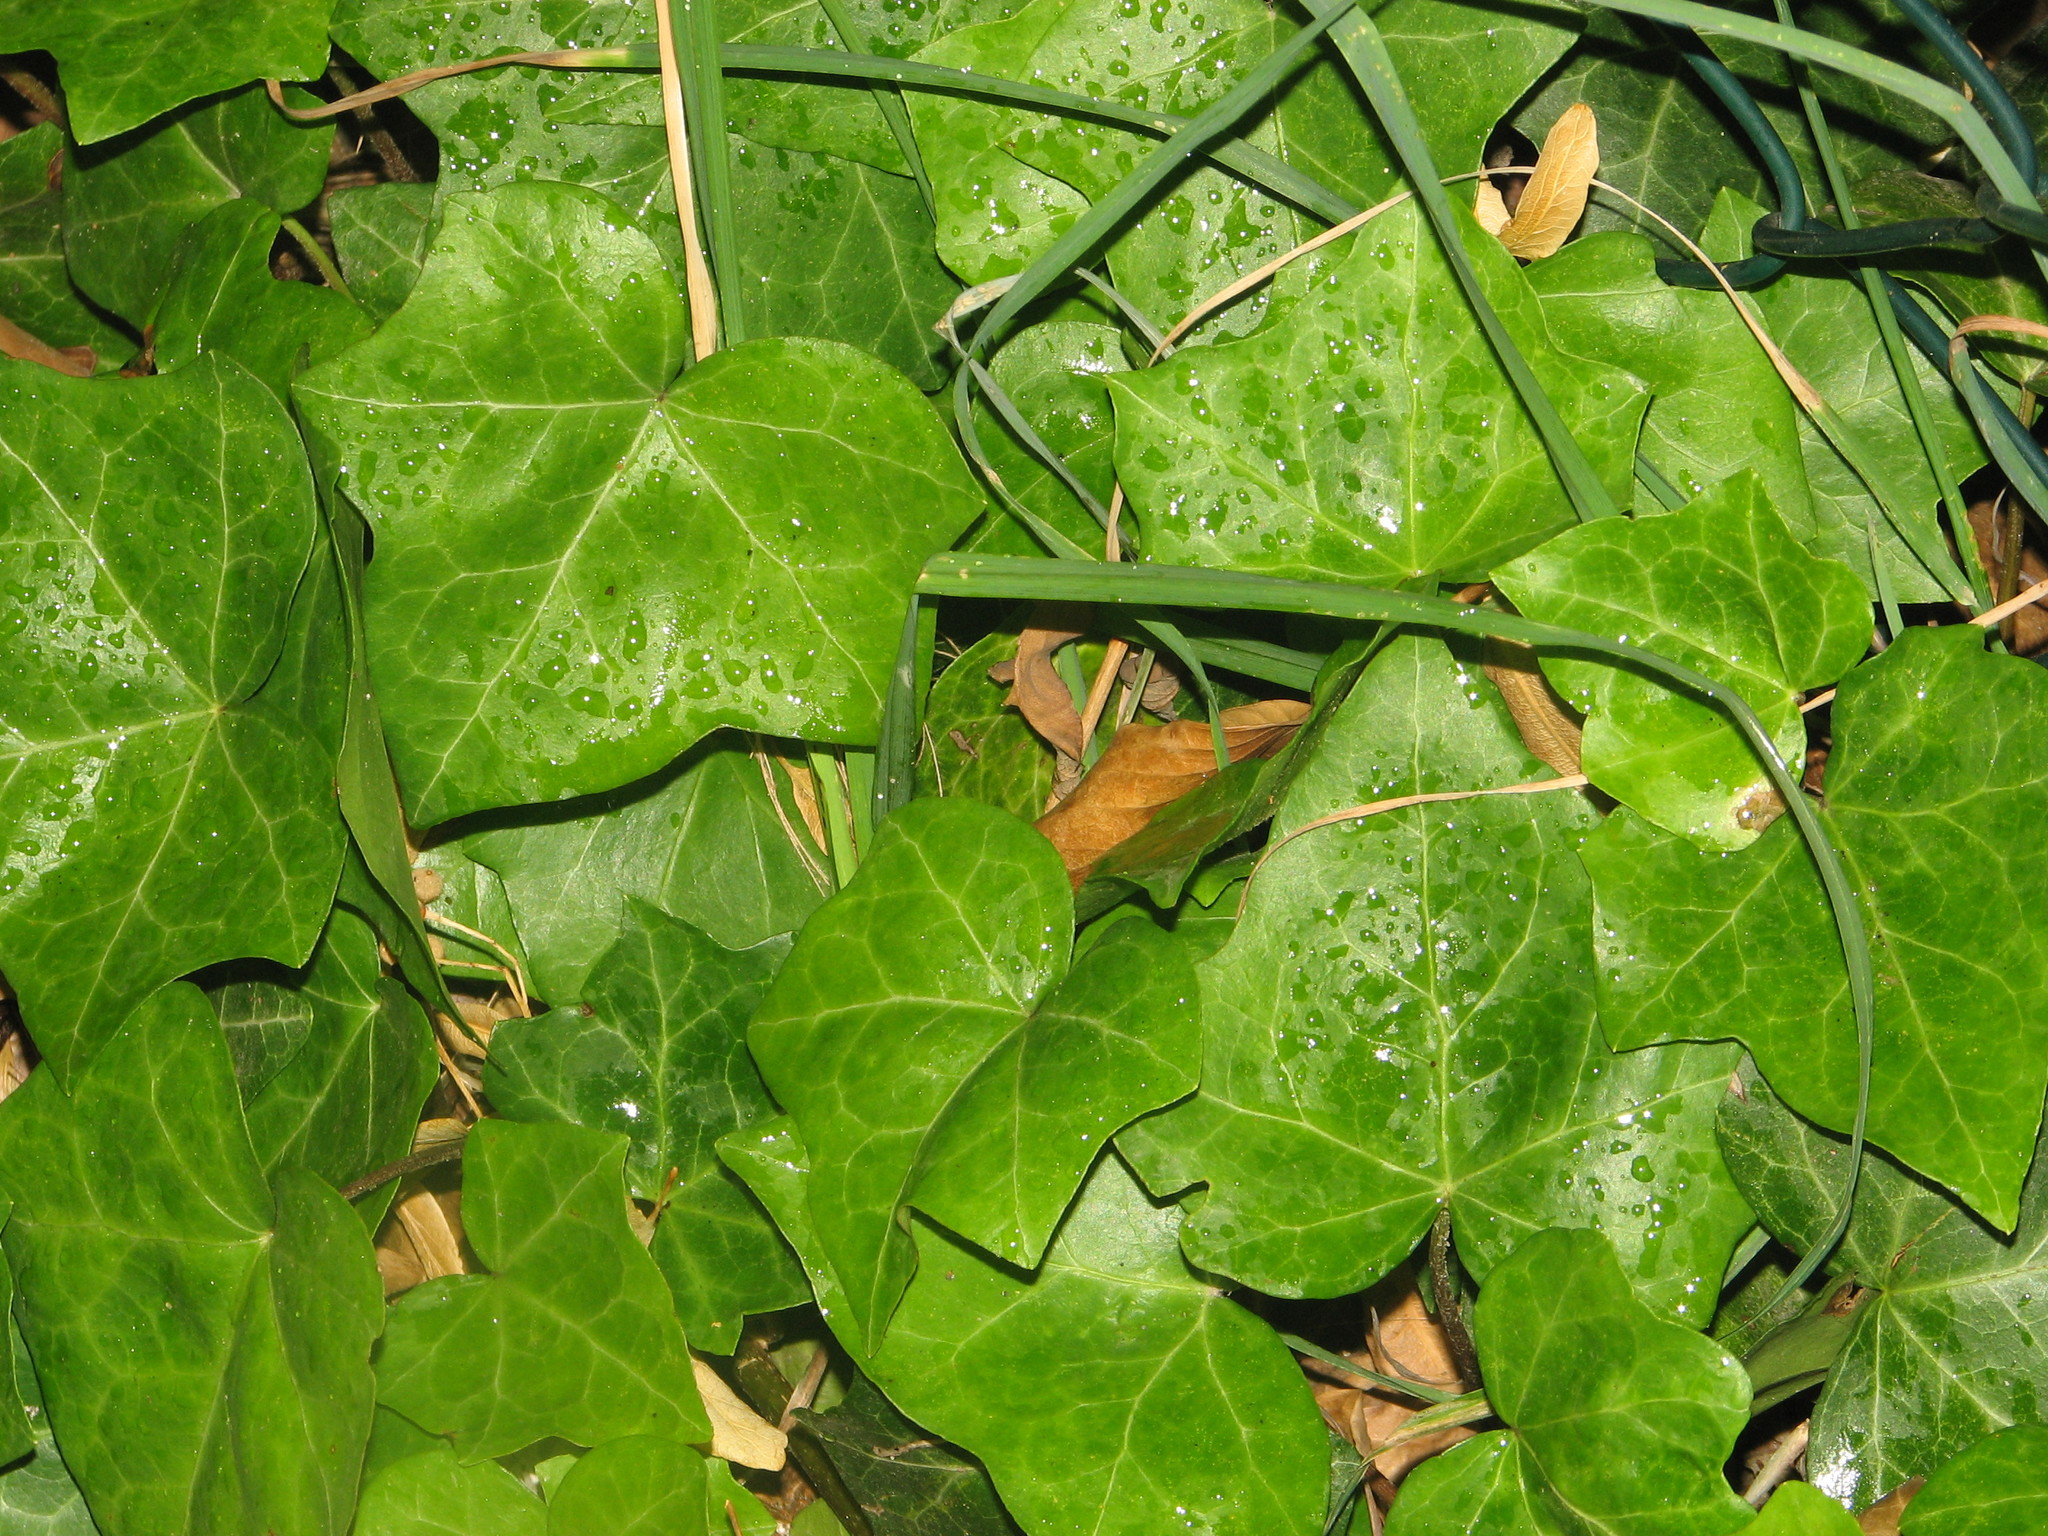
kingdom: Plantae
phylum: Tracheophyta
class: Magnoliopsida
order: Apiales
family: Araliaceae
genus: Hedera
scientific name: Hedera helix
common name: Ivy
